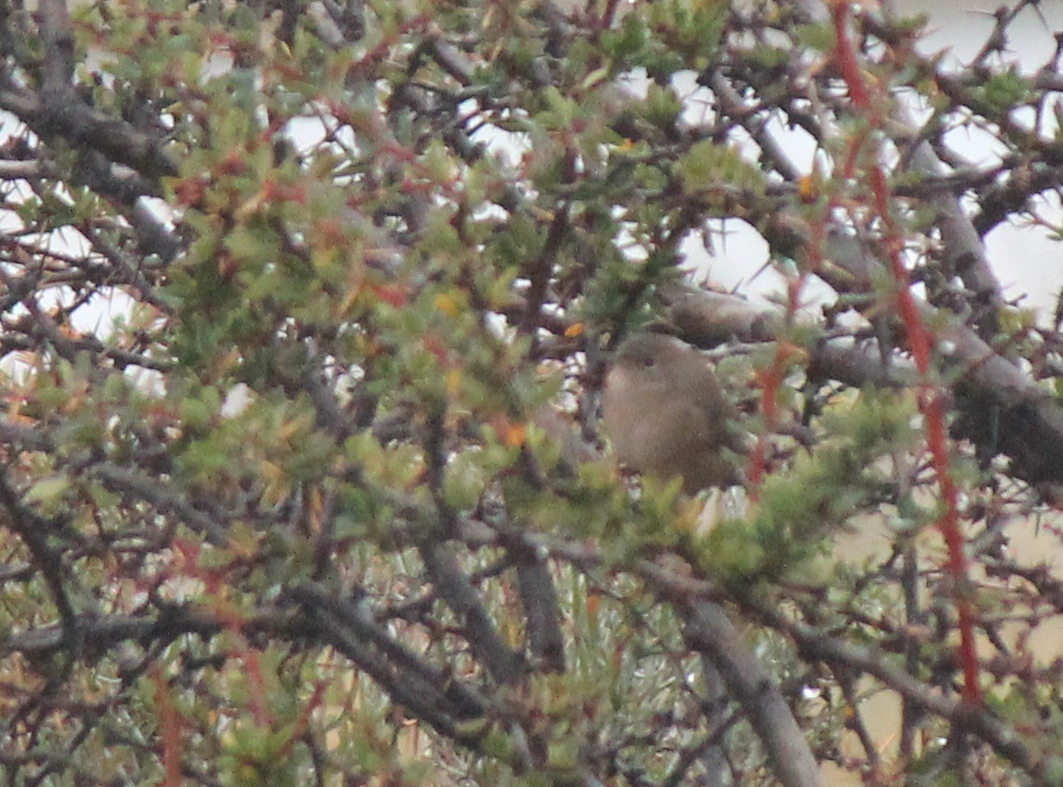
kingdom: Animalia
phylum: Chordata
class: Aves
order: Passeriformes
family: Troglodytidae
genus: Troglodytes
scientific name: Troglodytes aedon
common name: House wren
